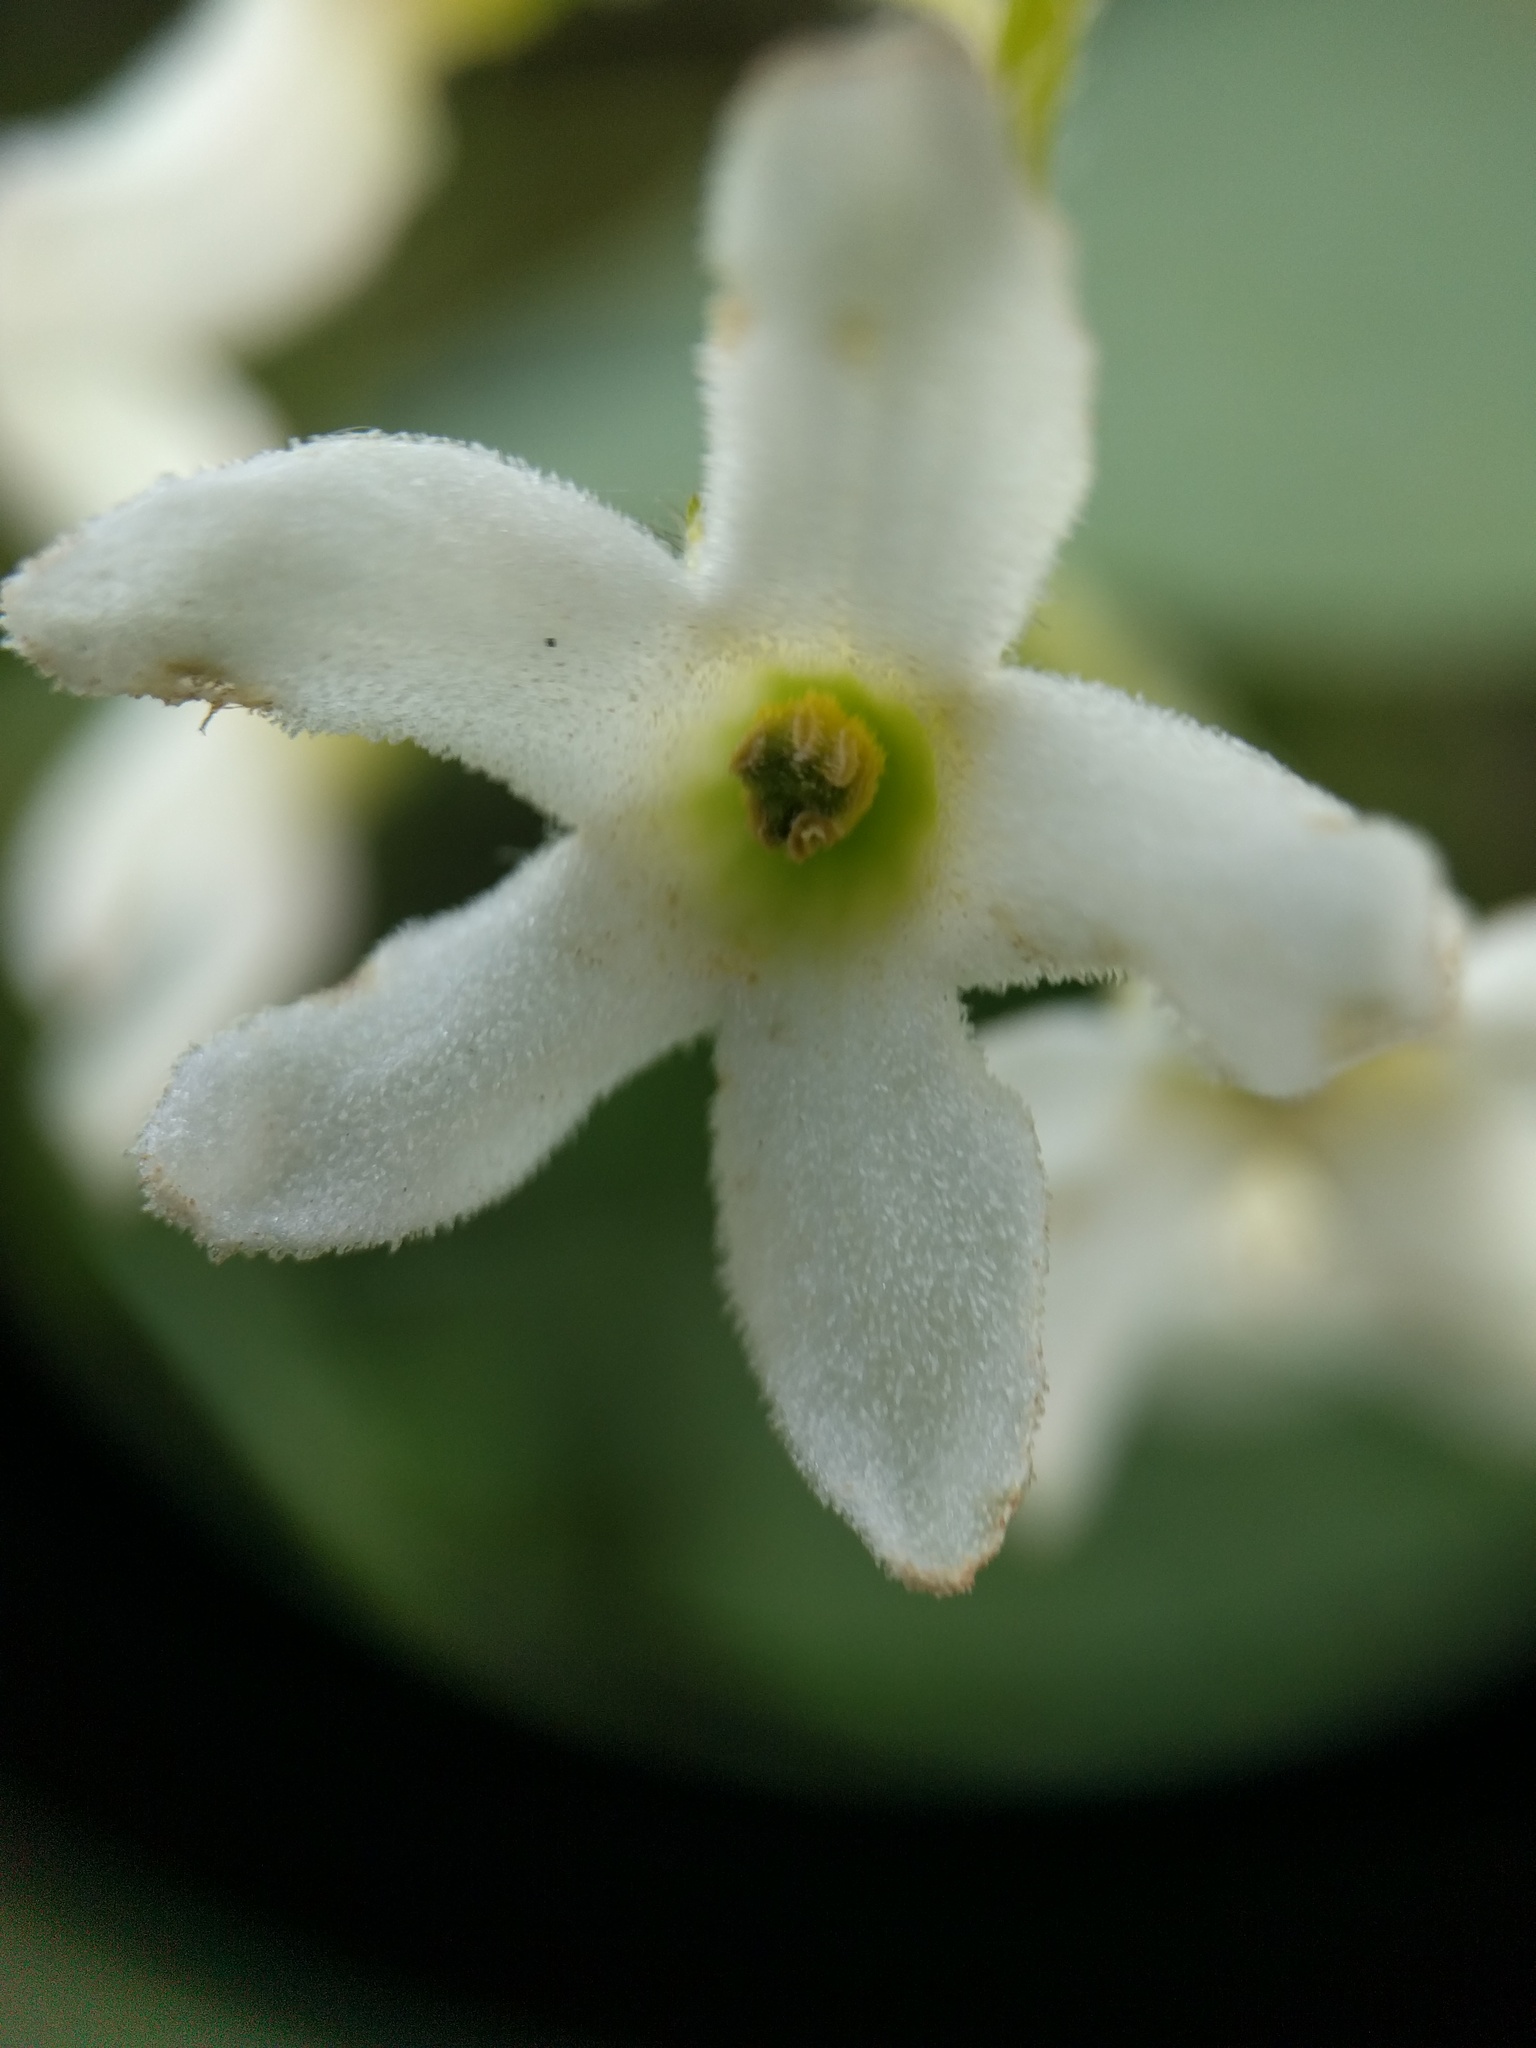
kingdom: Plantae
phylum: Tracheophyta
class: Magnoliopsida
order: Cucurbitales
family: Cucurbitaceae
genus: Marah
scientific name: Marah oregana
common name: Coastal manroot
